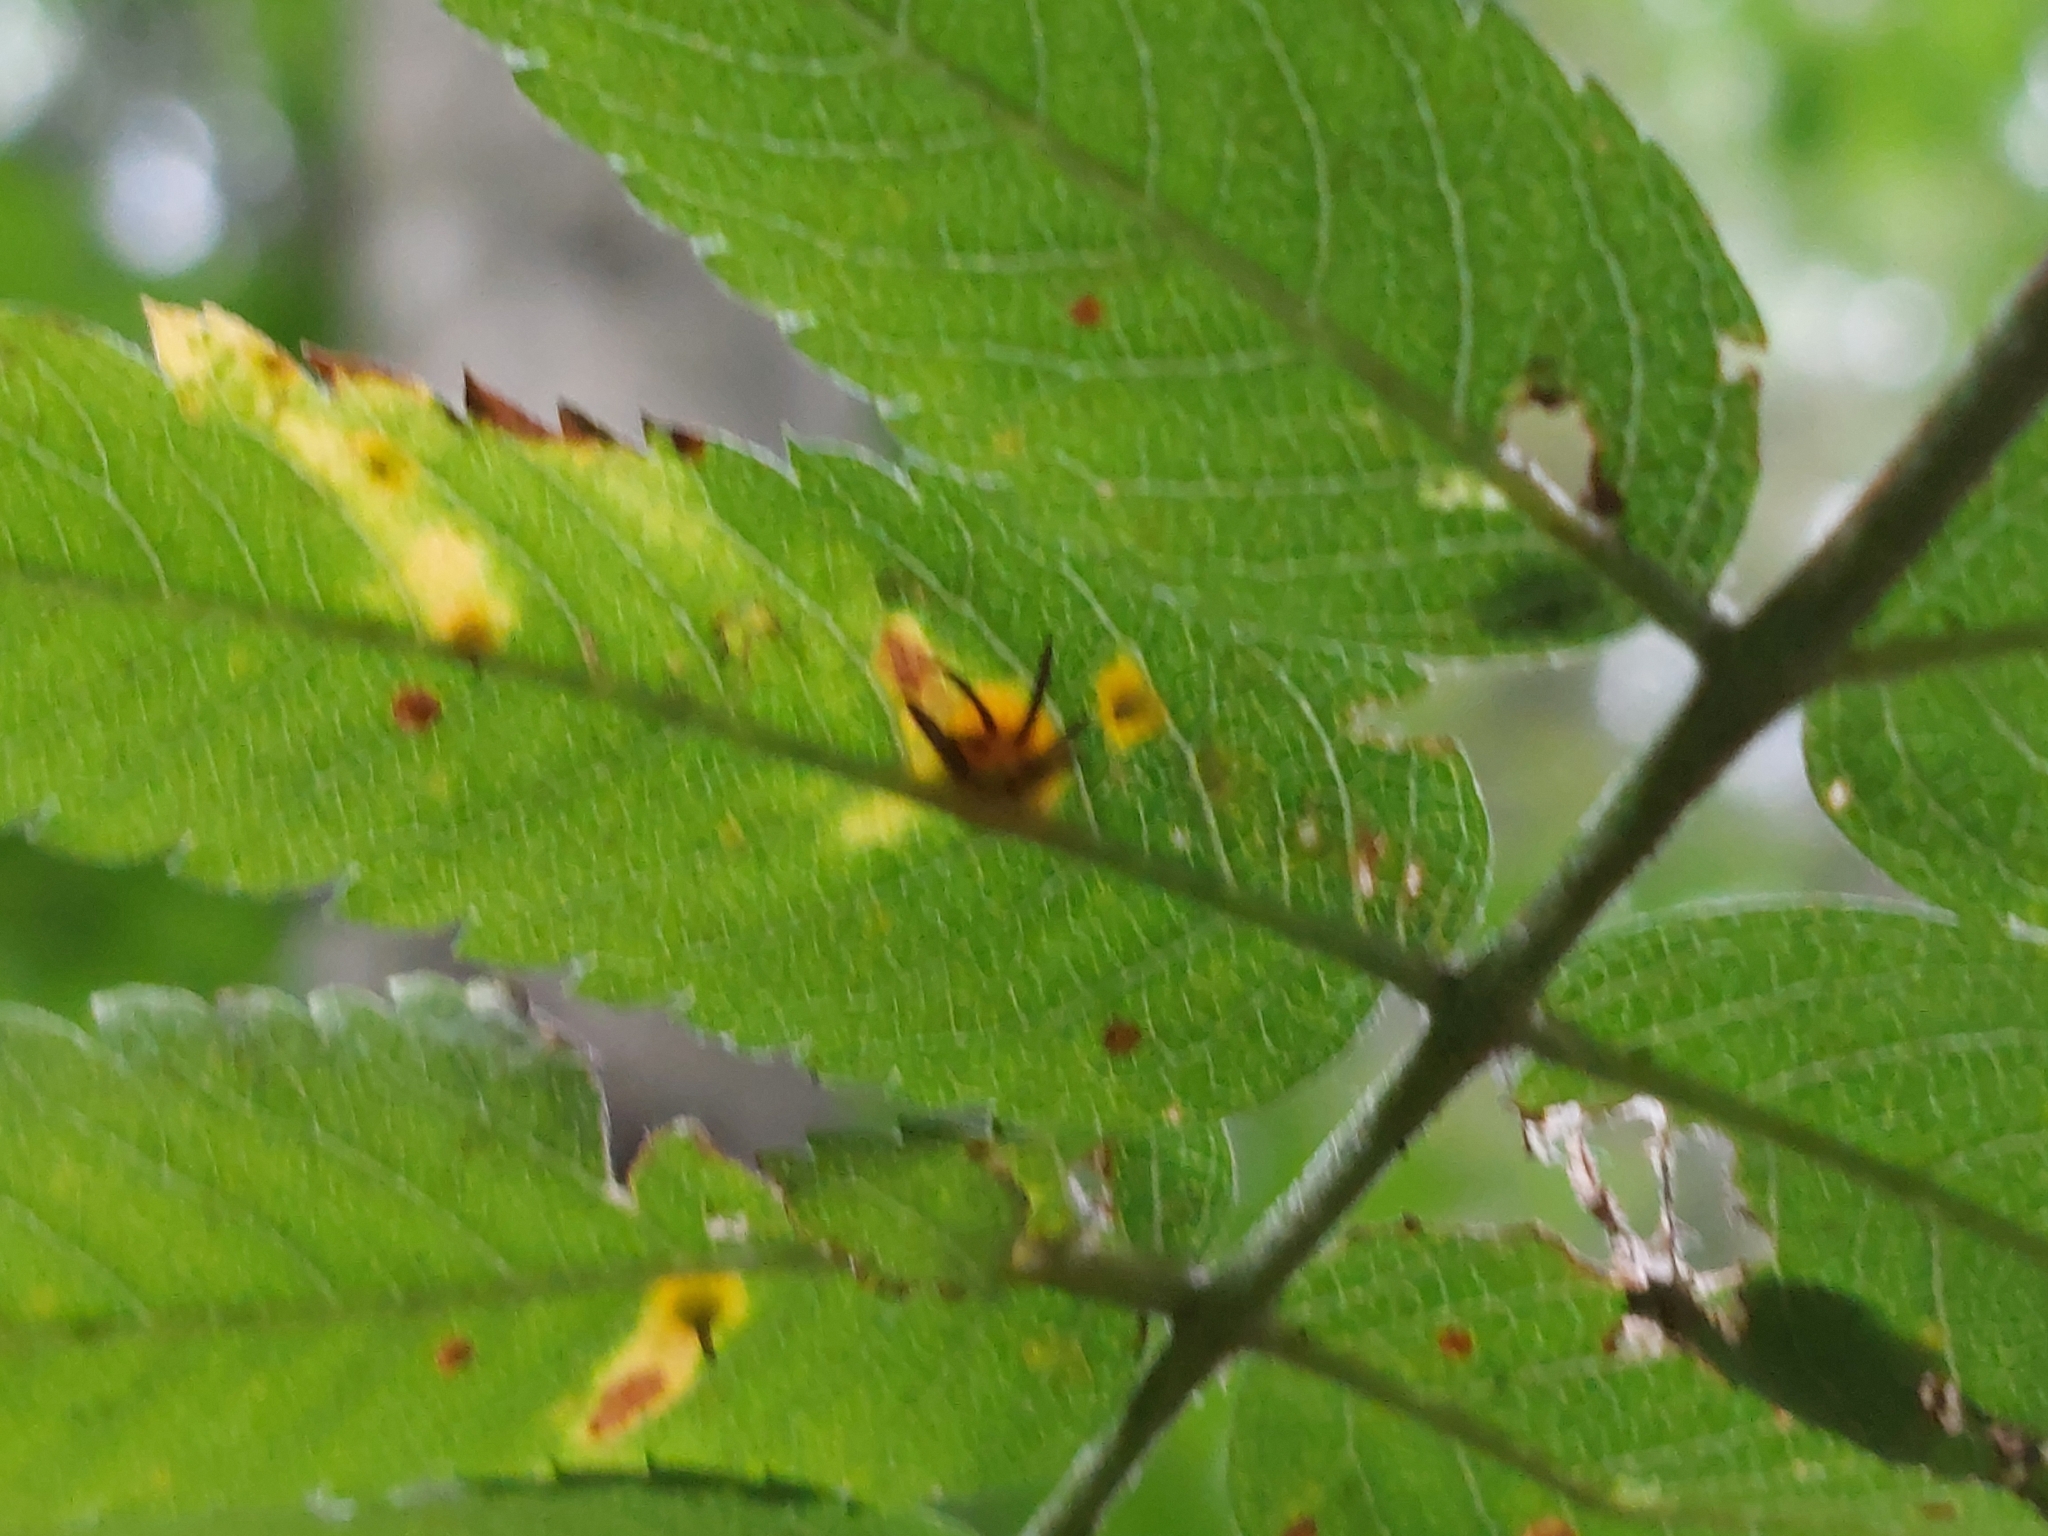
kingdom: Fungi
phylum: Basidiomycota
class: Pucciniomycetes
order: Pucciniales
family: Gymnosporangiaceae
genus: Gymnosporangium
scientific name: Gymnosporangium cornutum
